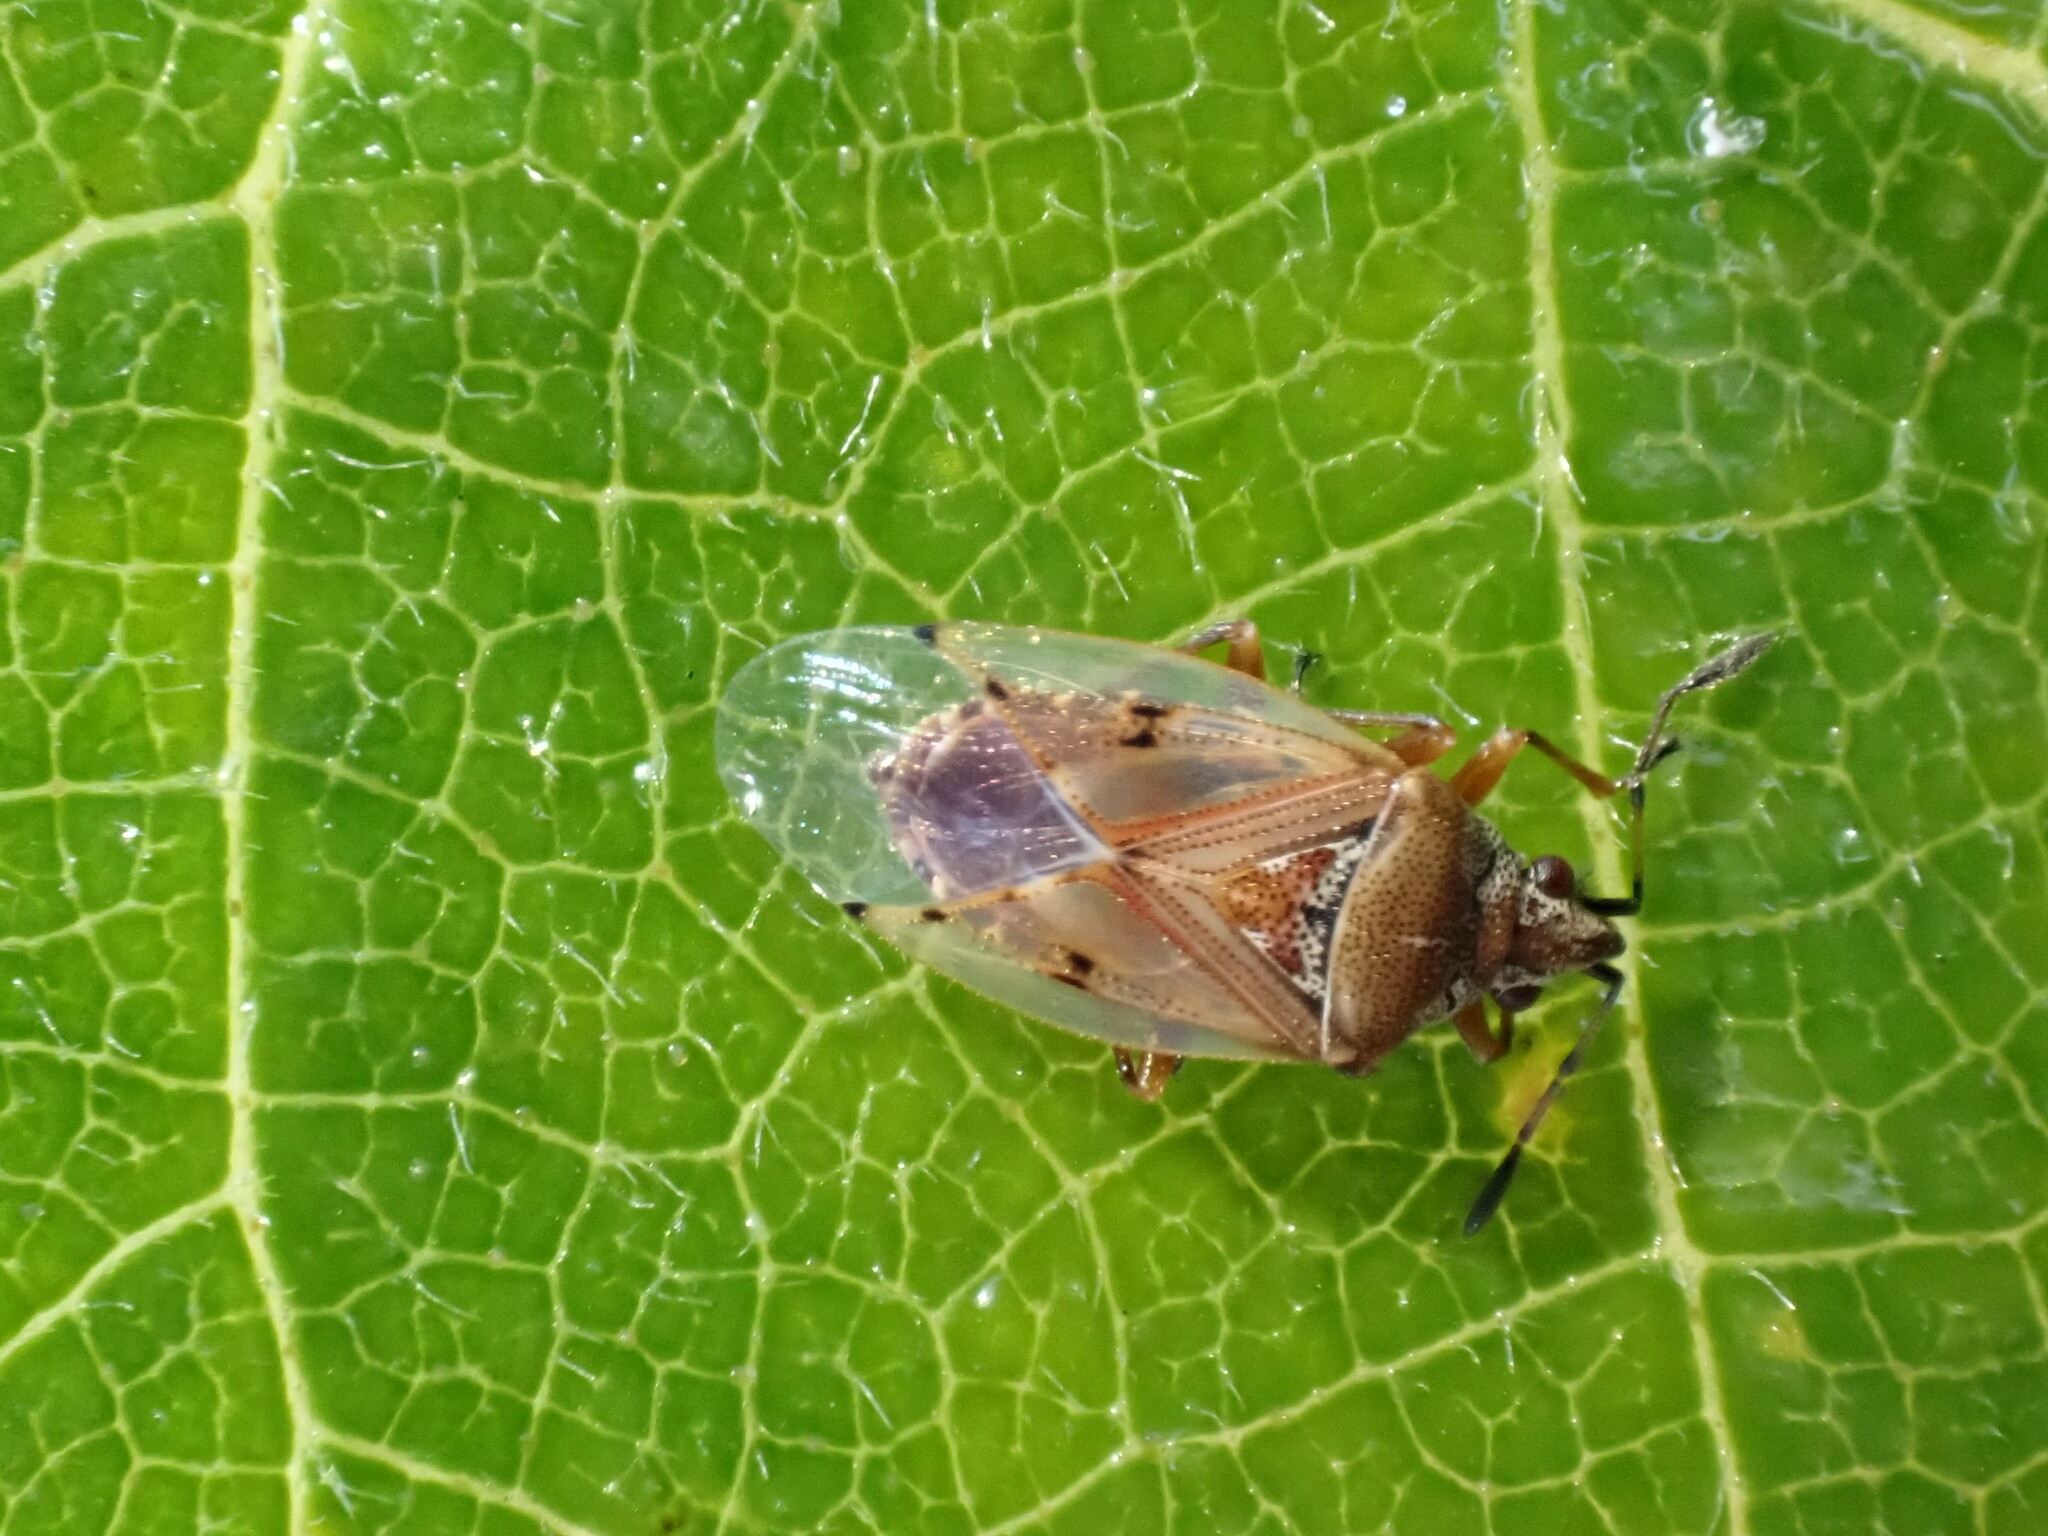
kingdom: Animalia
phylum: Arthropoda
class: Insecta
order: Hemiptera
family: Lygaeidae
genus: Kleidocerys
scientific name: Kleidocerys resedae
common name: Birch catkin bug
